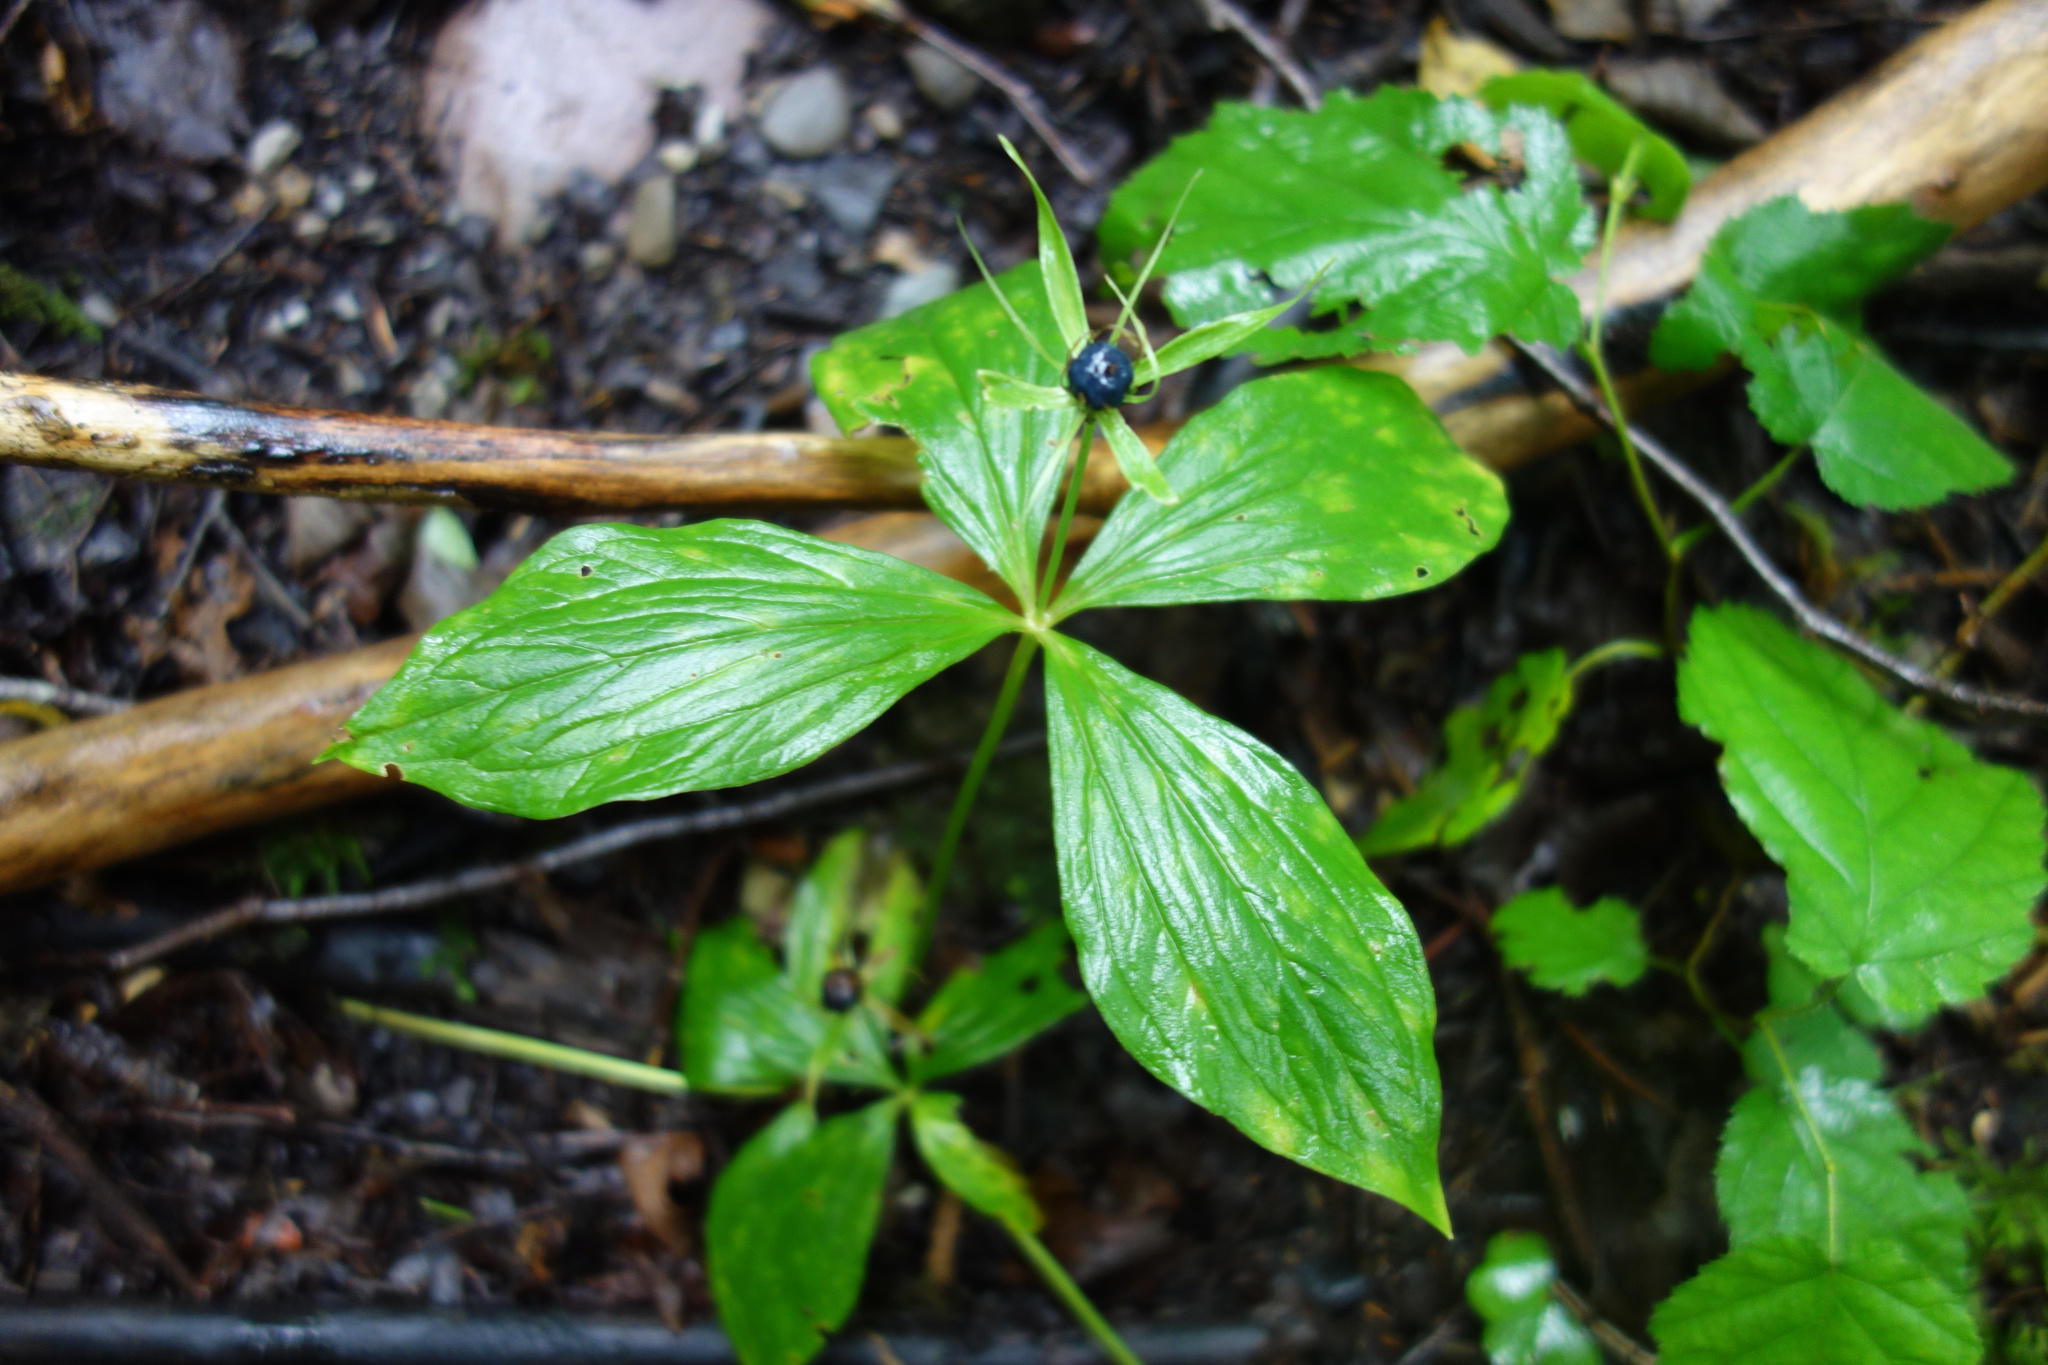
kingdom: Plantae
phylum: Tracheophyta
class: Liliopsida
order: Liliales
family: Melanthiaceae
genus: Paris
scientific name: Paris quadrifolia
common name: Herb-paris
